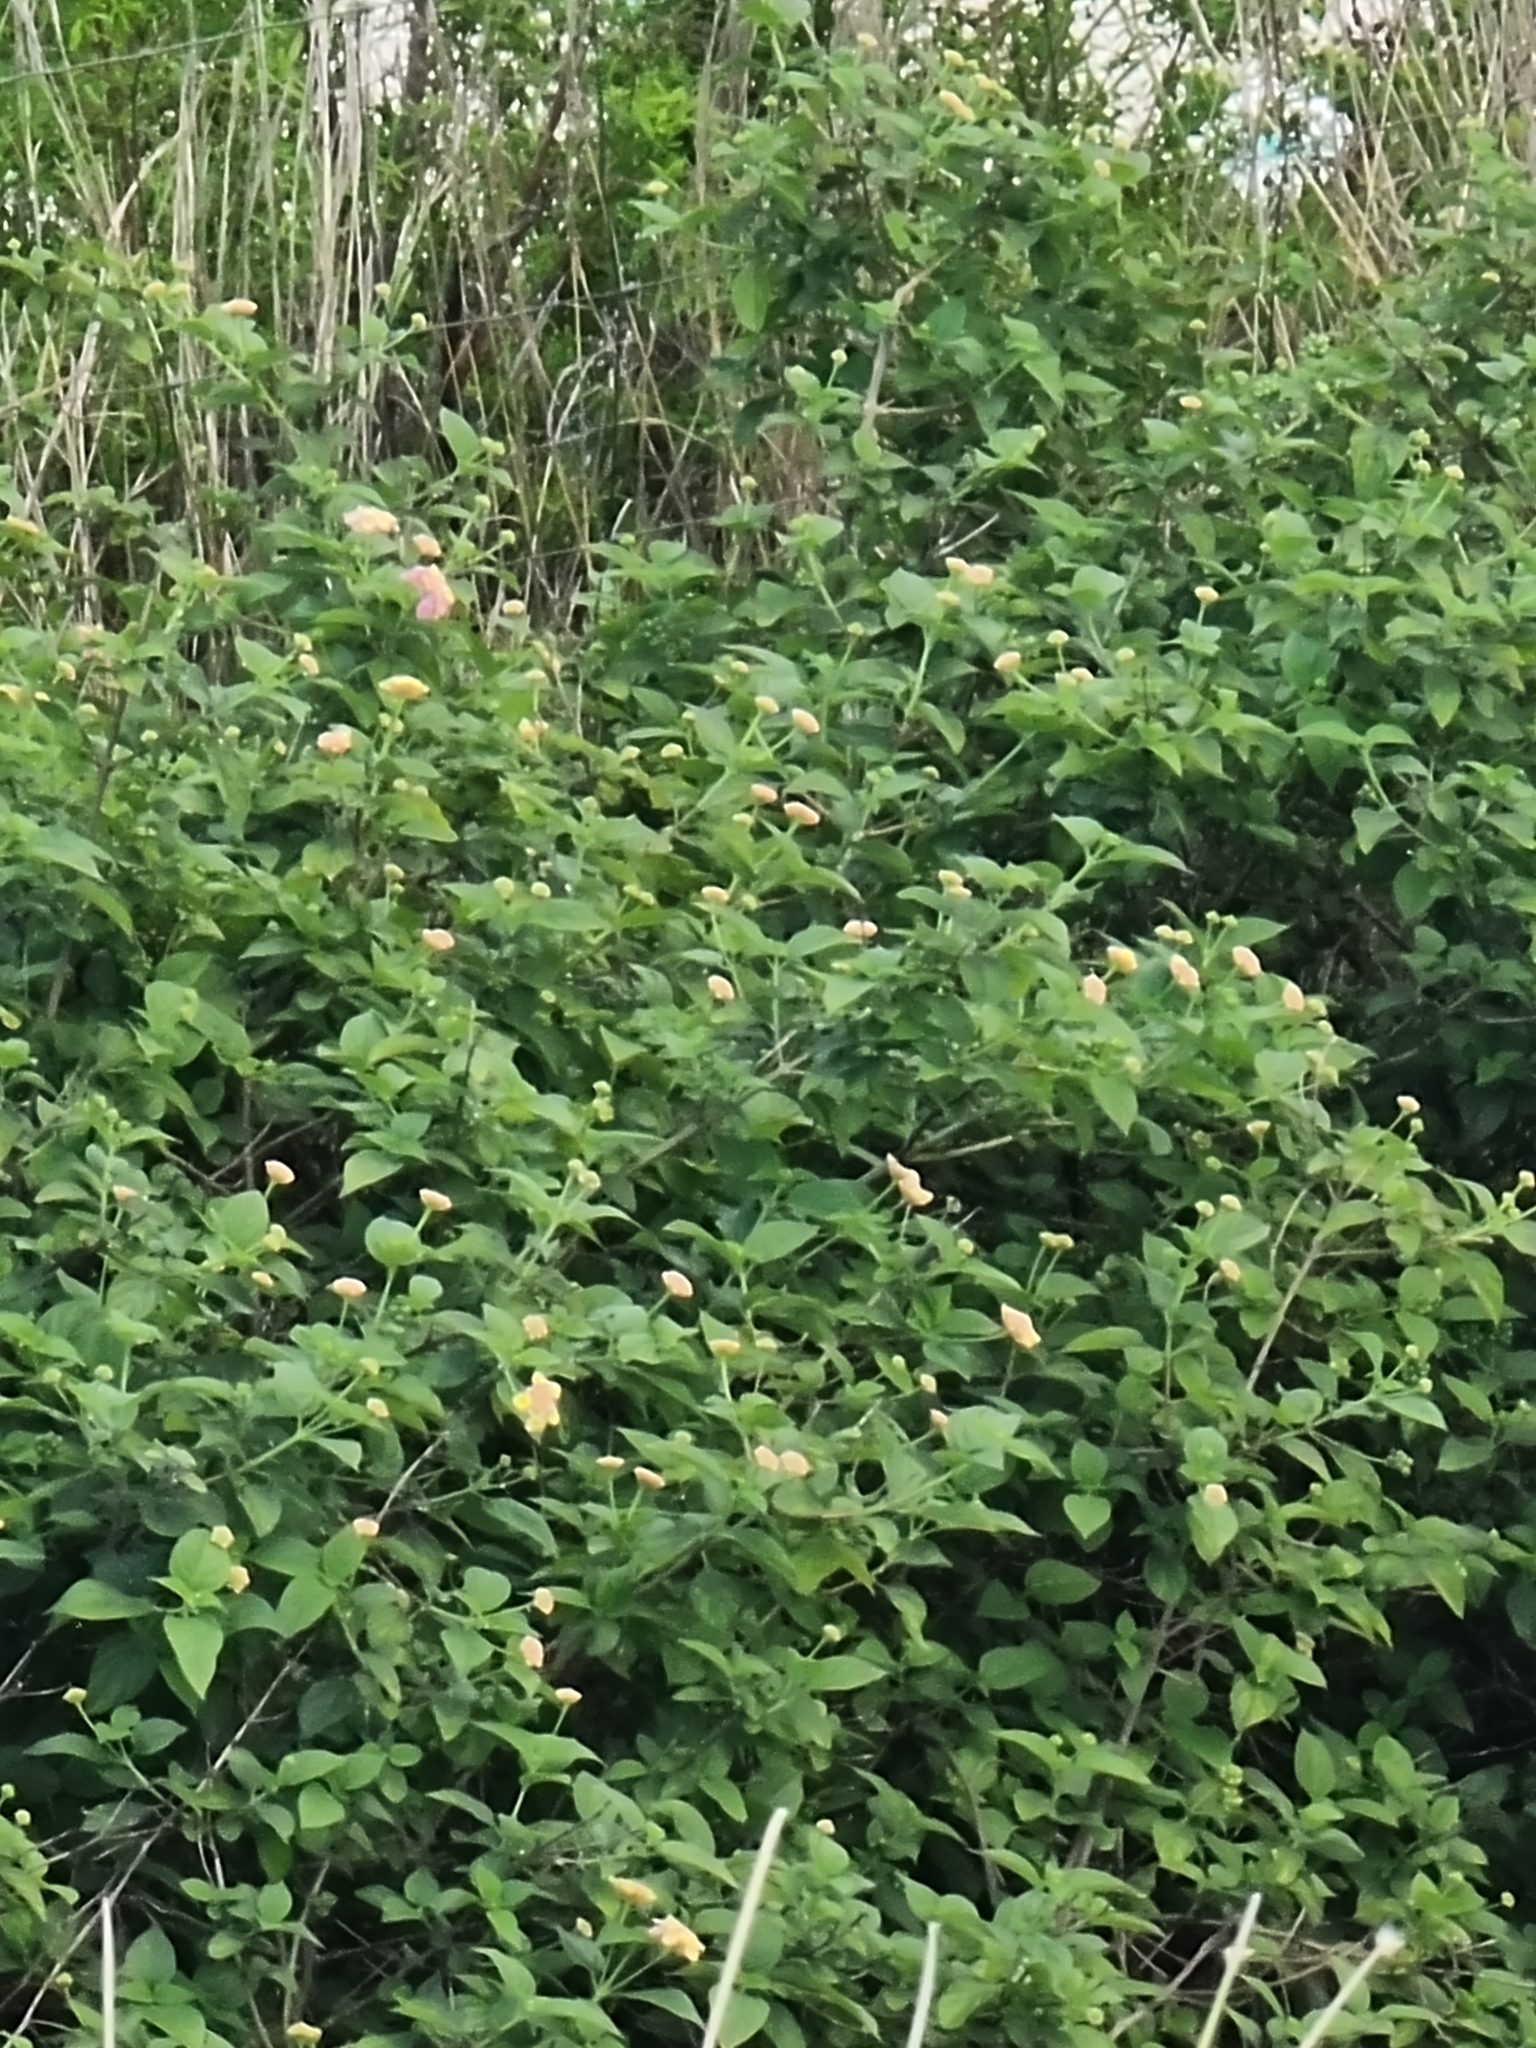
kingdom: Plantae
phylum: Tracheophyta
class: Magnoliopsida
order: Lamiales
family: Verbenaceae
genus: Lantana
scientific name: Lantana camara
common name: Lantana
